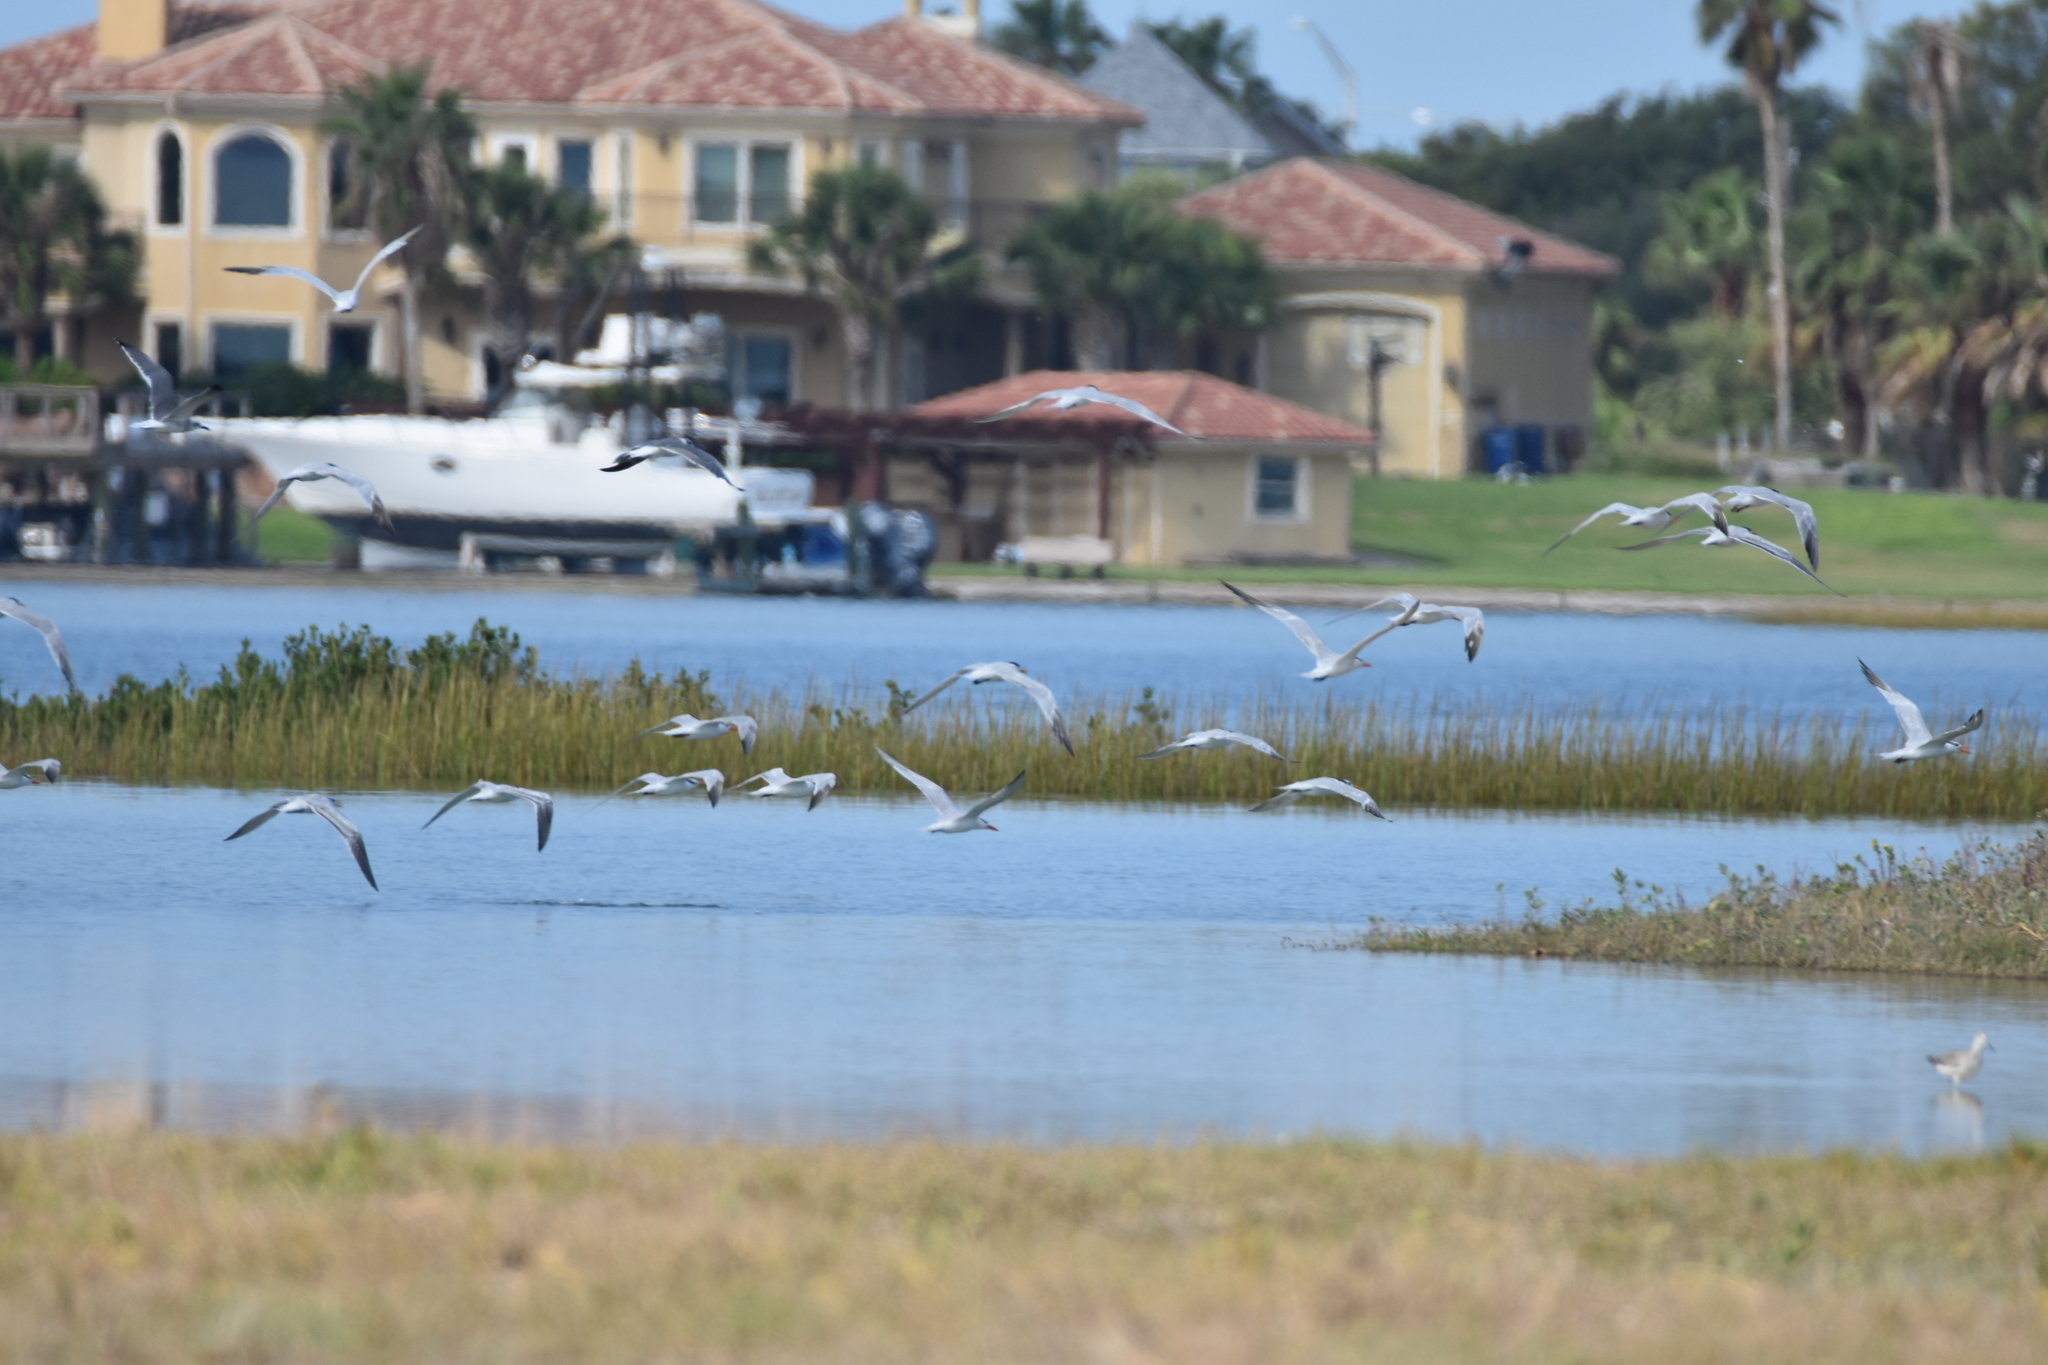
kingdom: Animalia
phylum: Chordata
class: Aves
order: Charadriiformes
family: Laridae
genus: Hydroprogne
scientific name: Hydroprogne caspia
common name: Caspian tern
